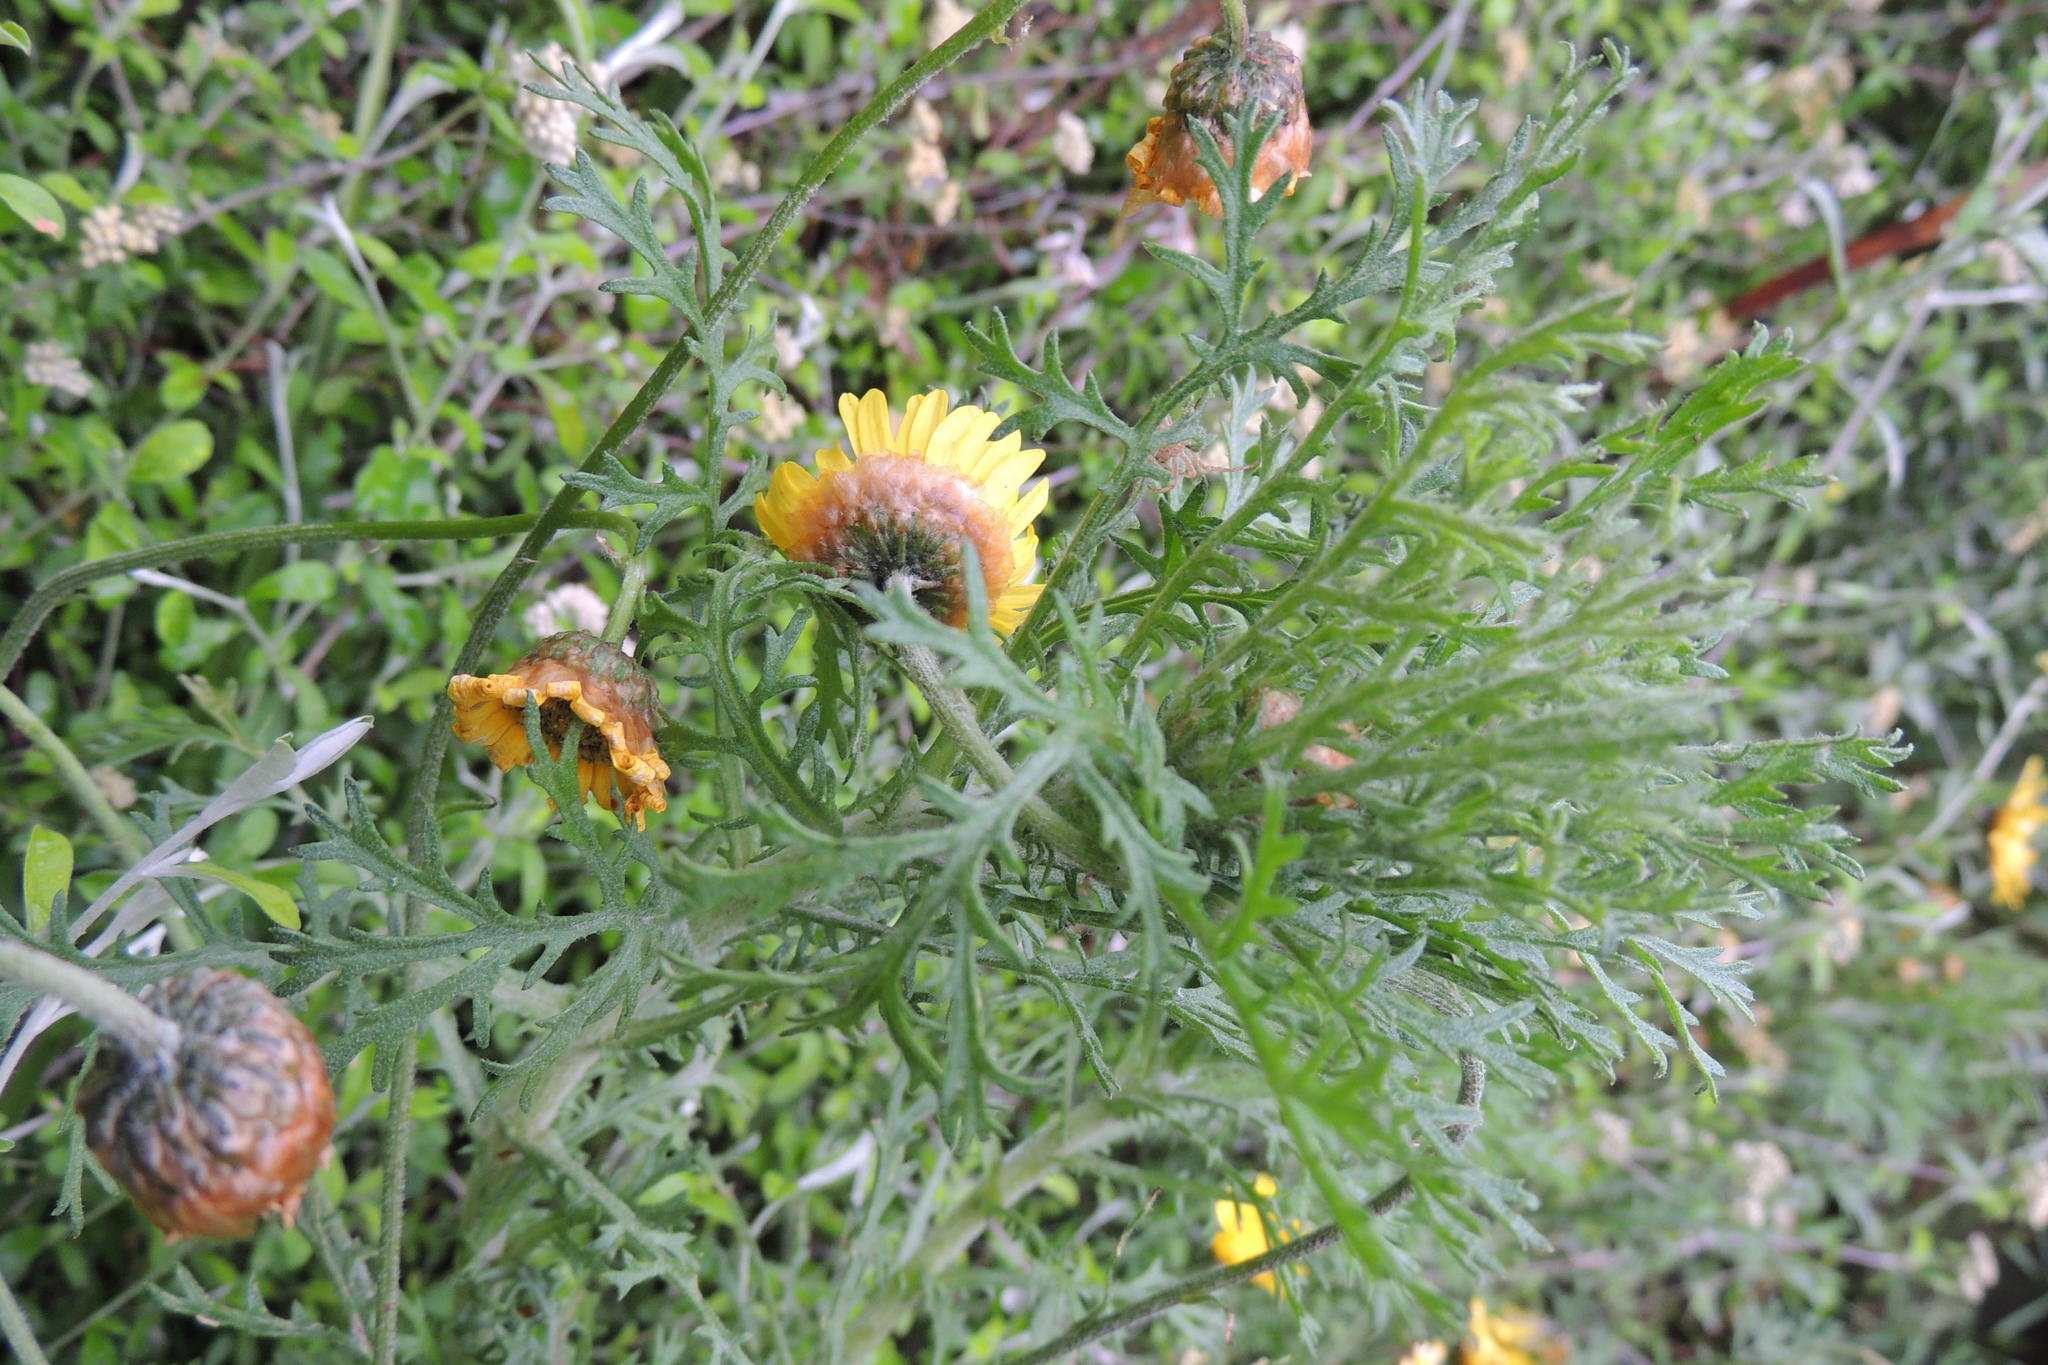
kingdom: Plantae
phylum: Tracheophyta
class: Magnoliopsida
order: Asterales
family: Asteraceae
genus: Ursinia
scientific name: Ursinia scariosa
